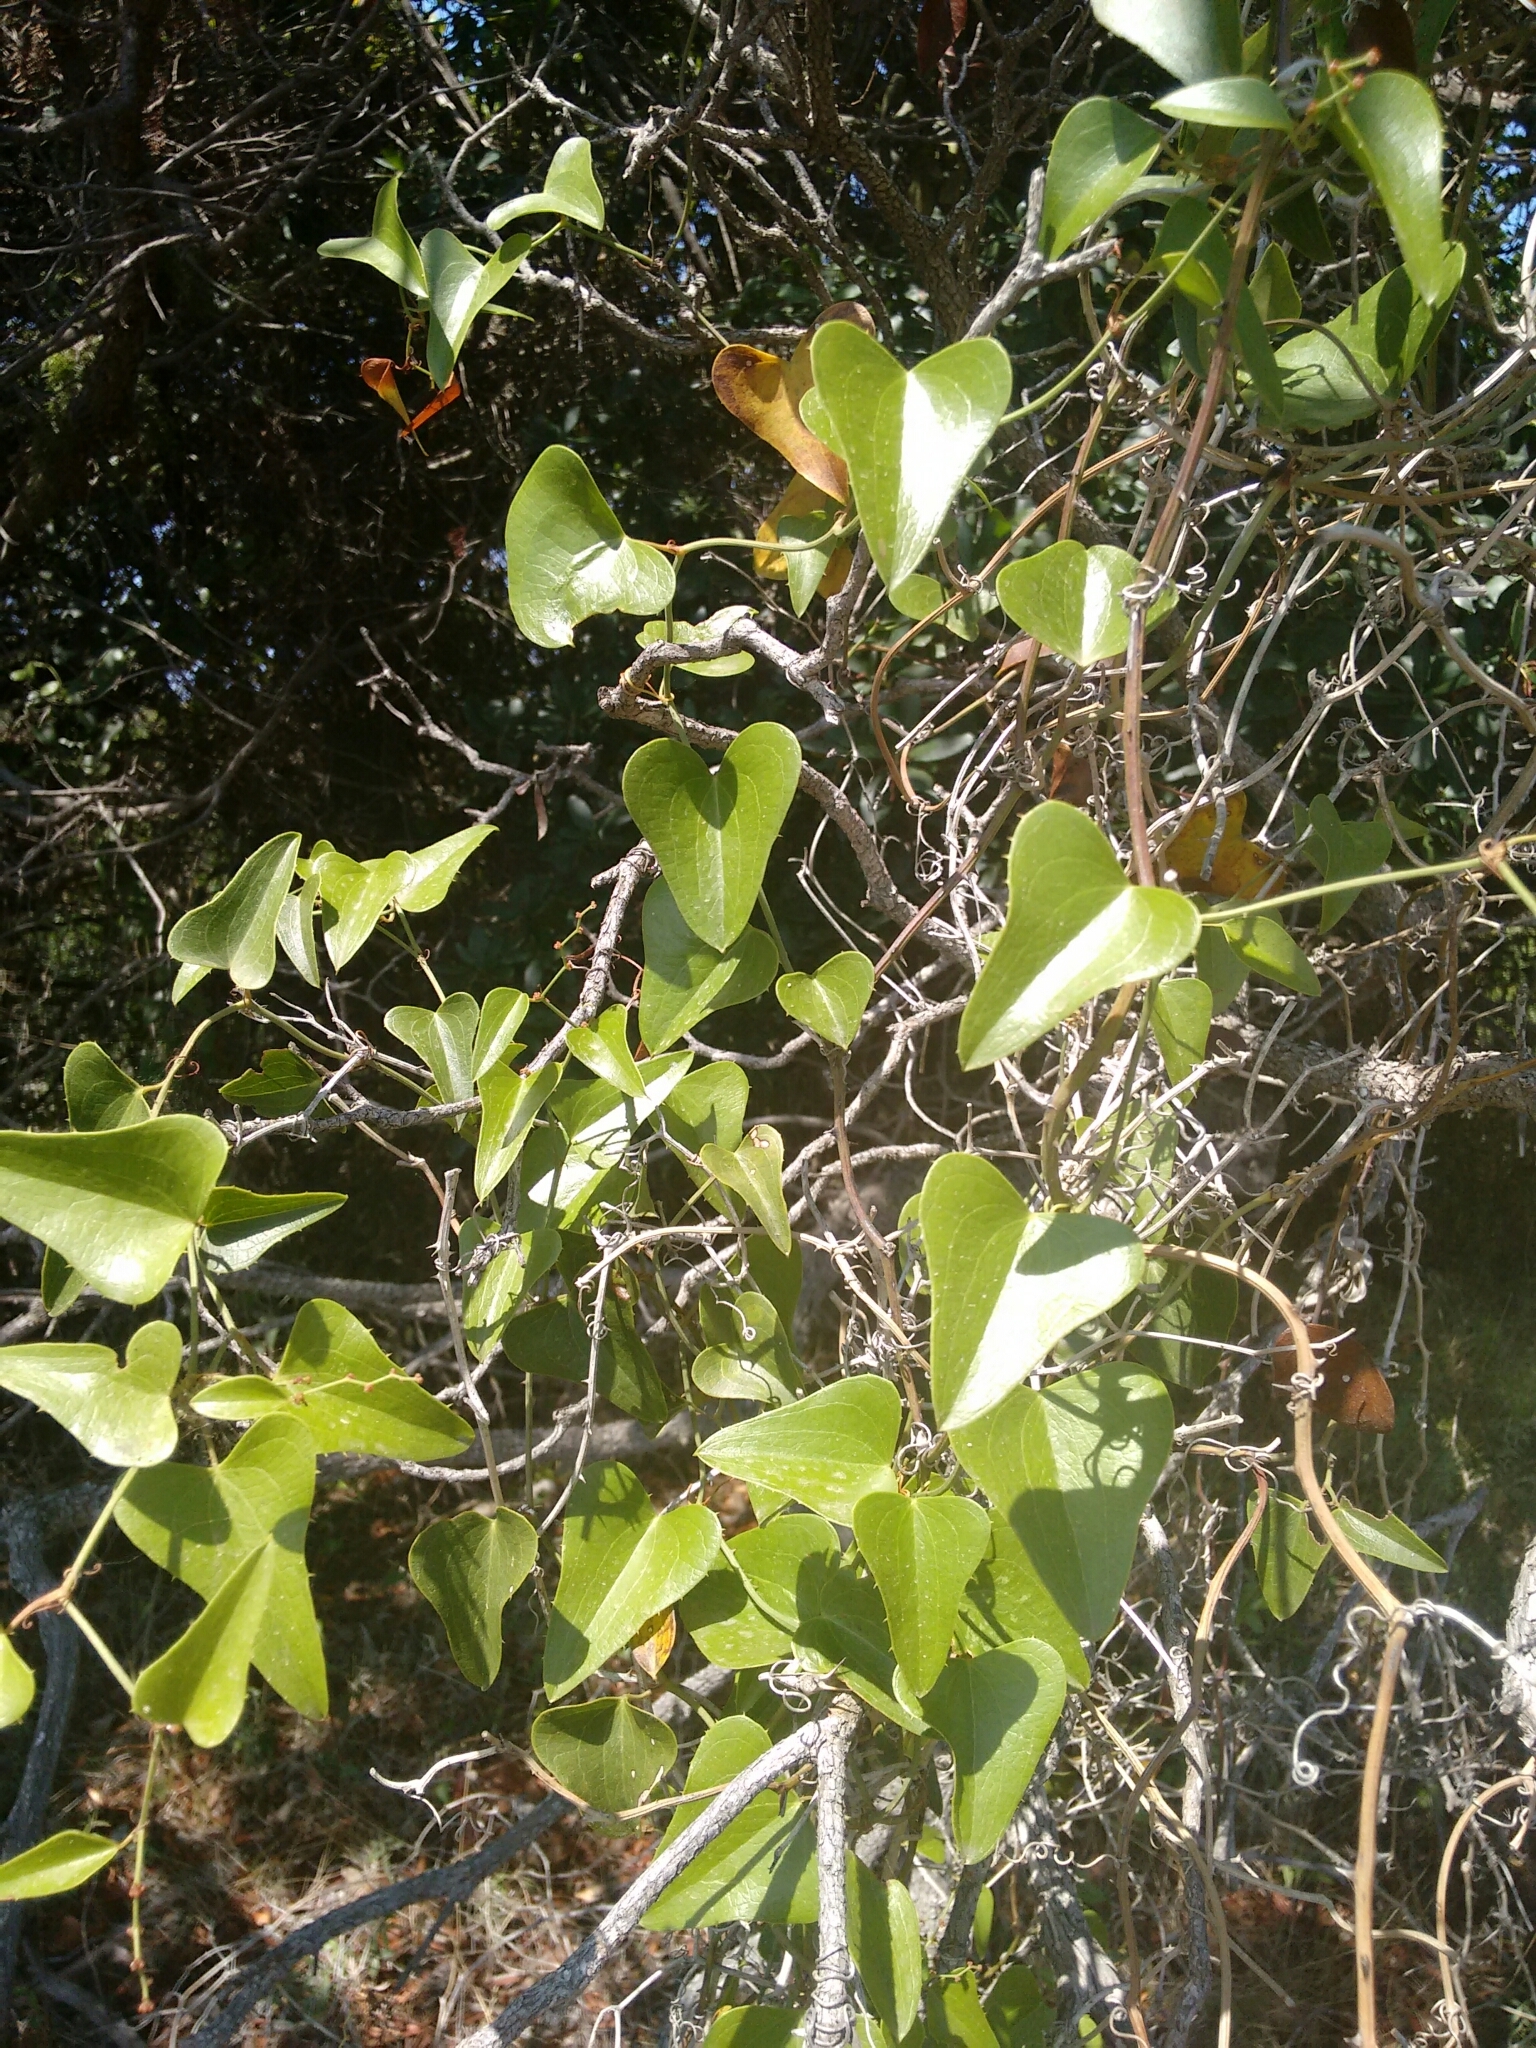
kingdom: Plantae
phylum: Tracheophyta
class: Liliopsida
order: Liliales
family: Smilacaceae
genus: Smilax
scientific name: Smilax aspera
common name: Common smilax
